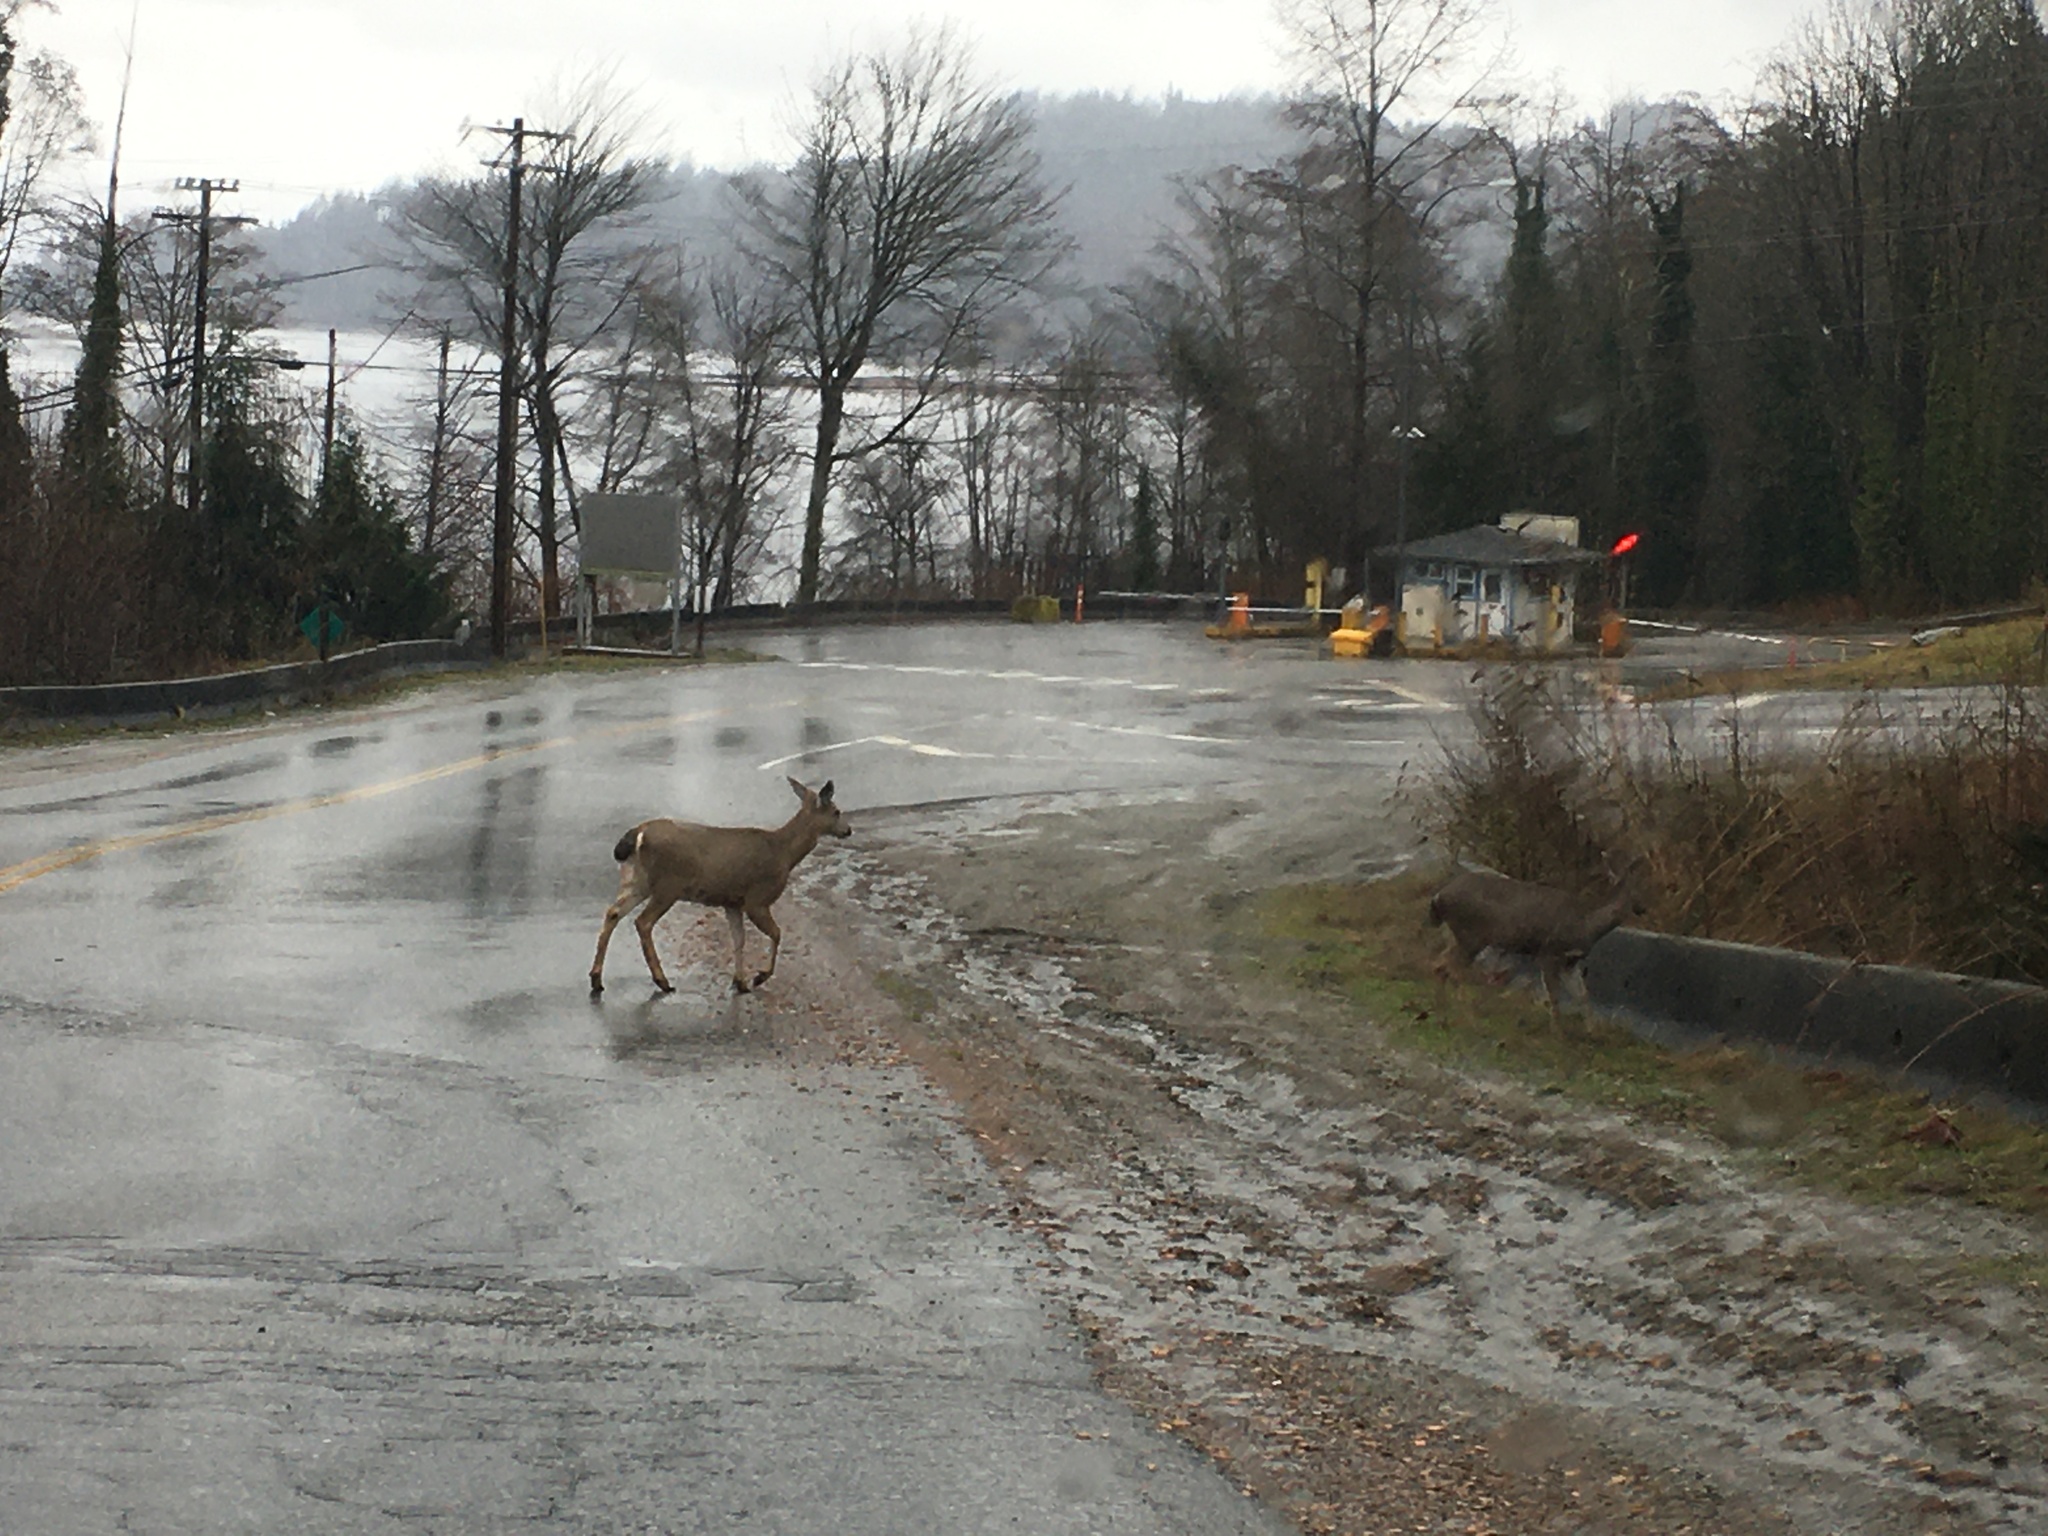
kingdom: Animalia
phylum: Chordata
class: Mammalia
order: Artiodactyla
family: Cervidae
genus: Odocoileus
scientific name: Odocoileus hemionus
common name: Mule deer
